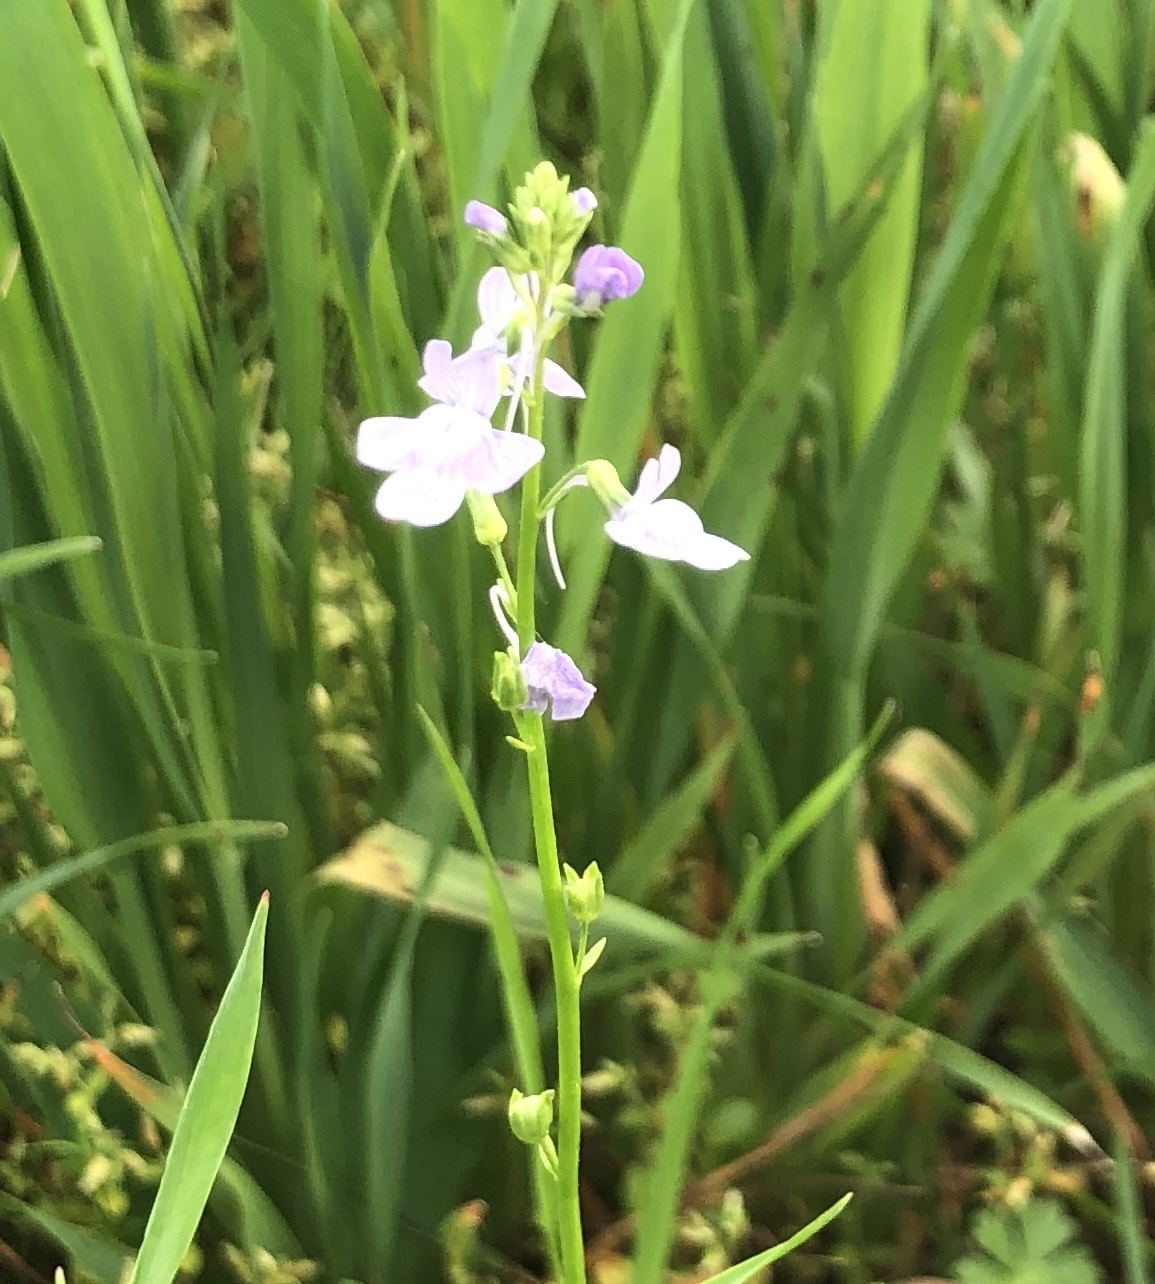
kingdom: Plantae
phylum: Tracheophyta
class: Magnoliopsida
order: Lamiales
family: Plantaginaceae
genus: Nuttallanthus
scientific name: Nuttallanthus texanus
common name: Texas toadflax
